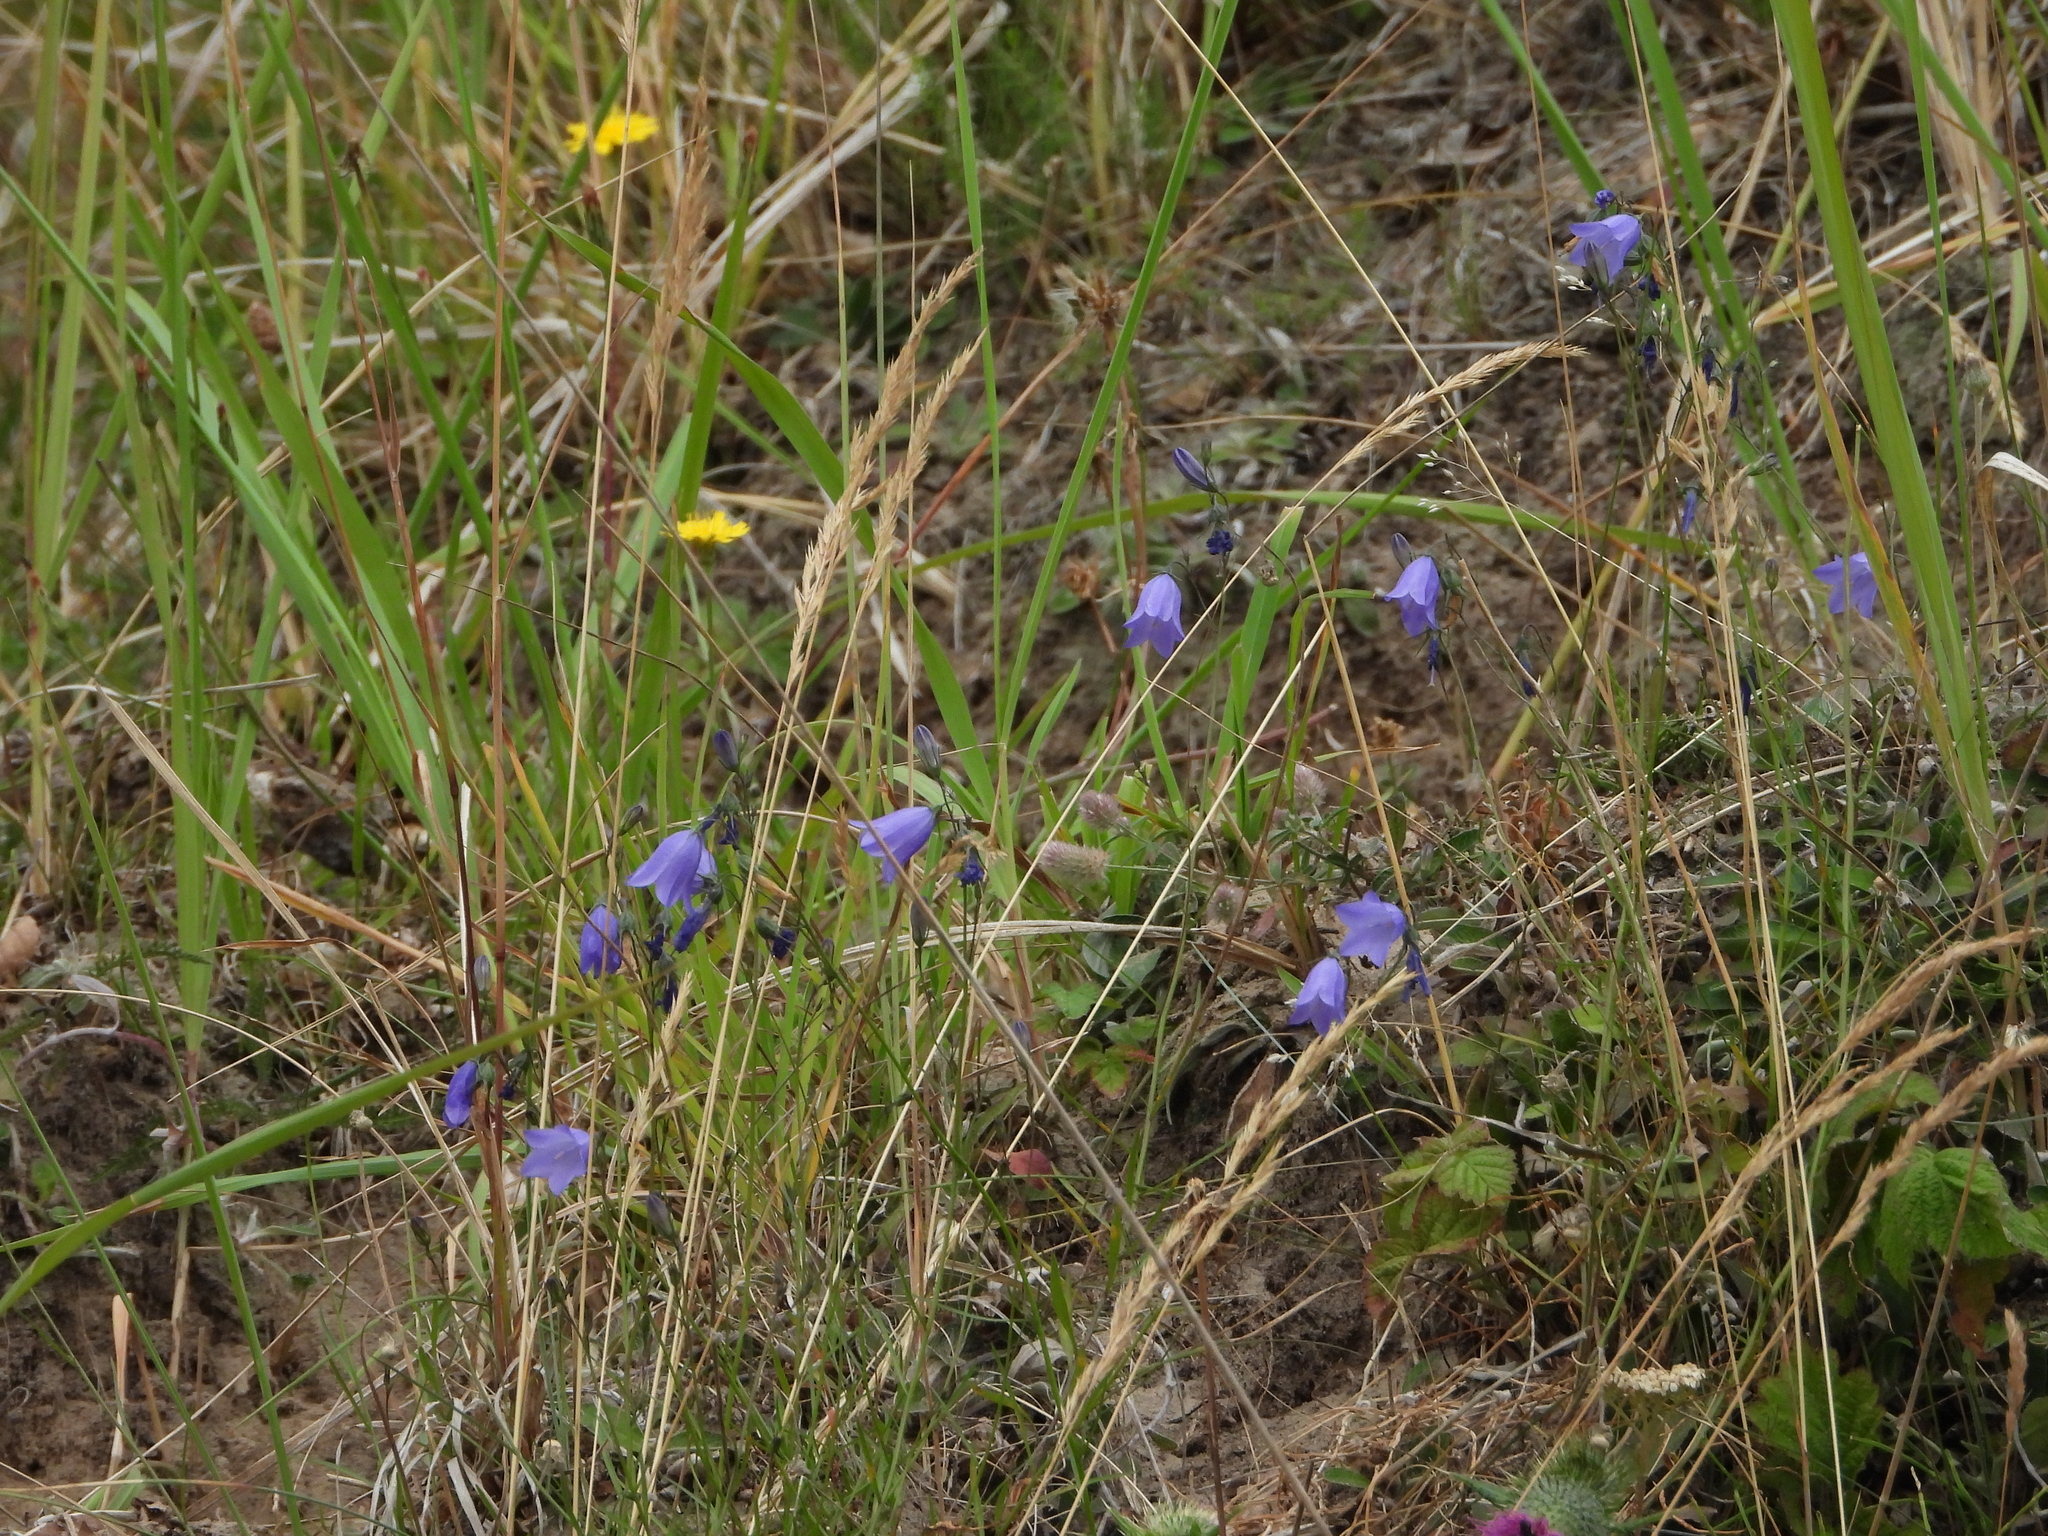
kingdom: Plantae
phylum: Tracheophyta
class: Magnoliopsida
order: Asterales
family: Campanulaceae
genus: Campanula
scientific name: Campanula rotundifolia
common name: Harebell
